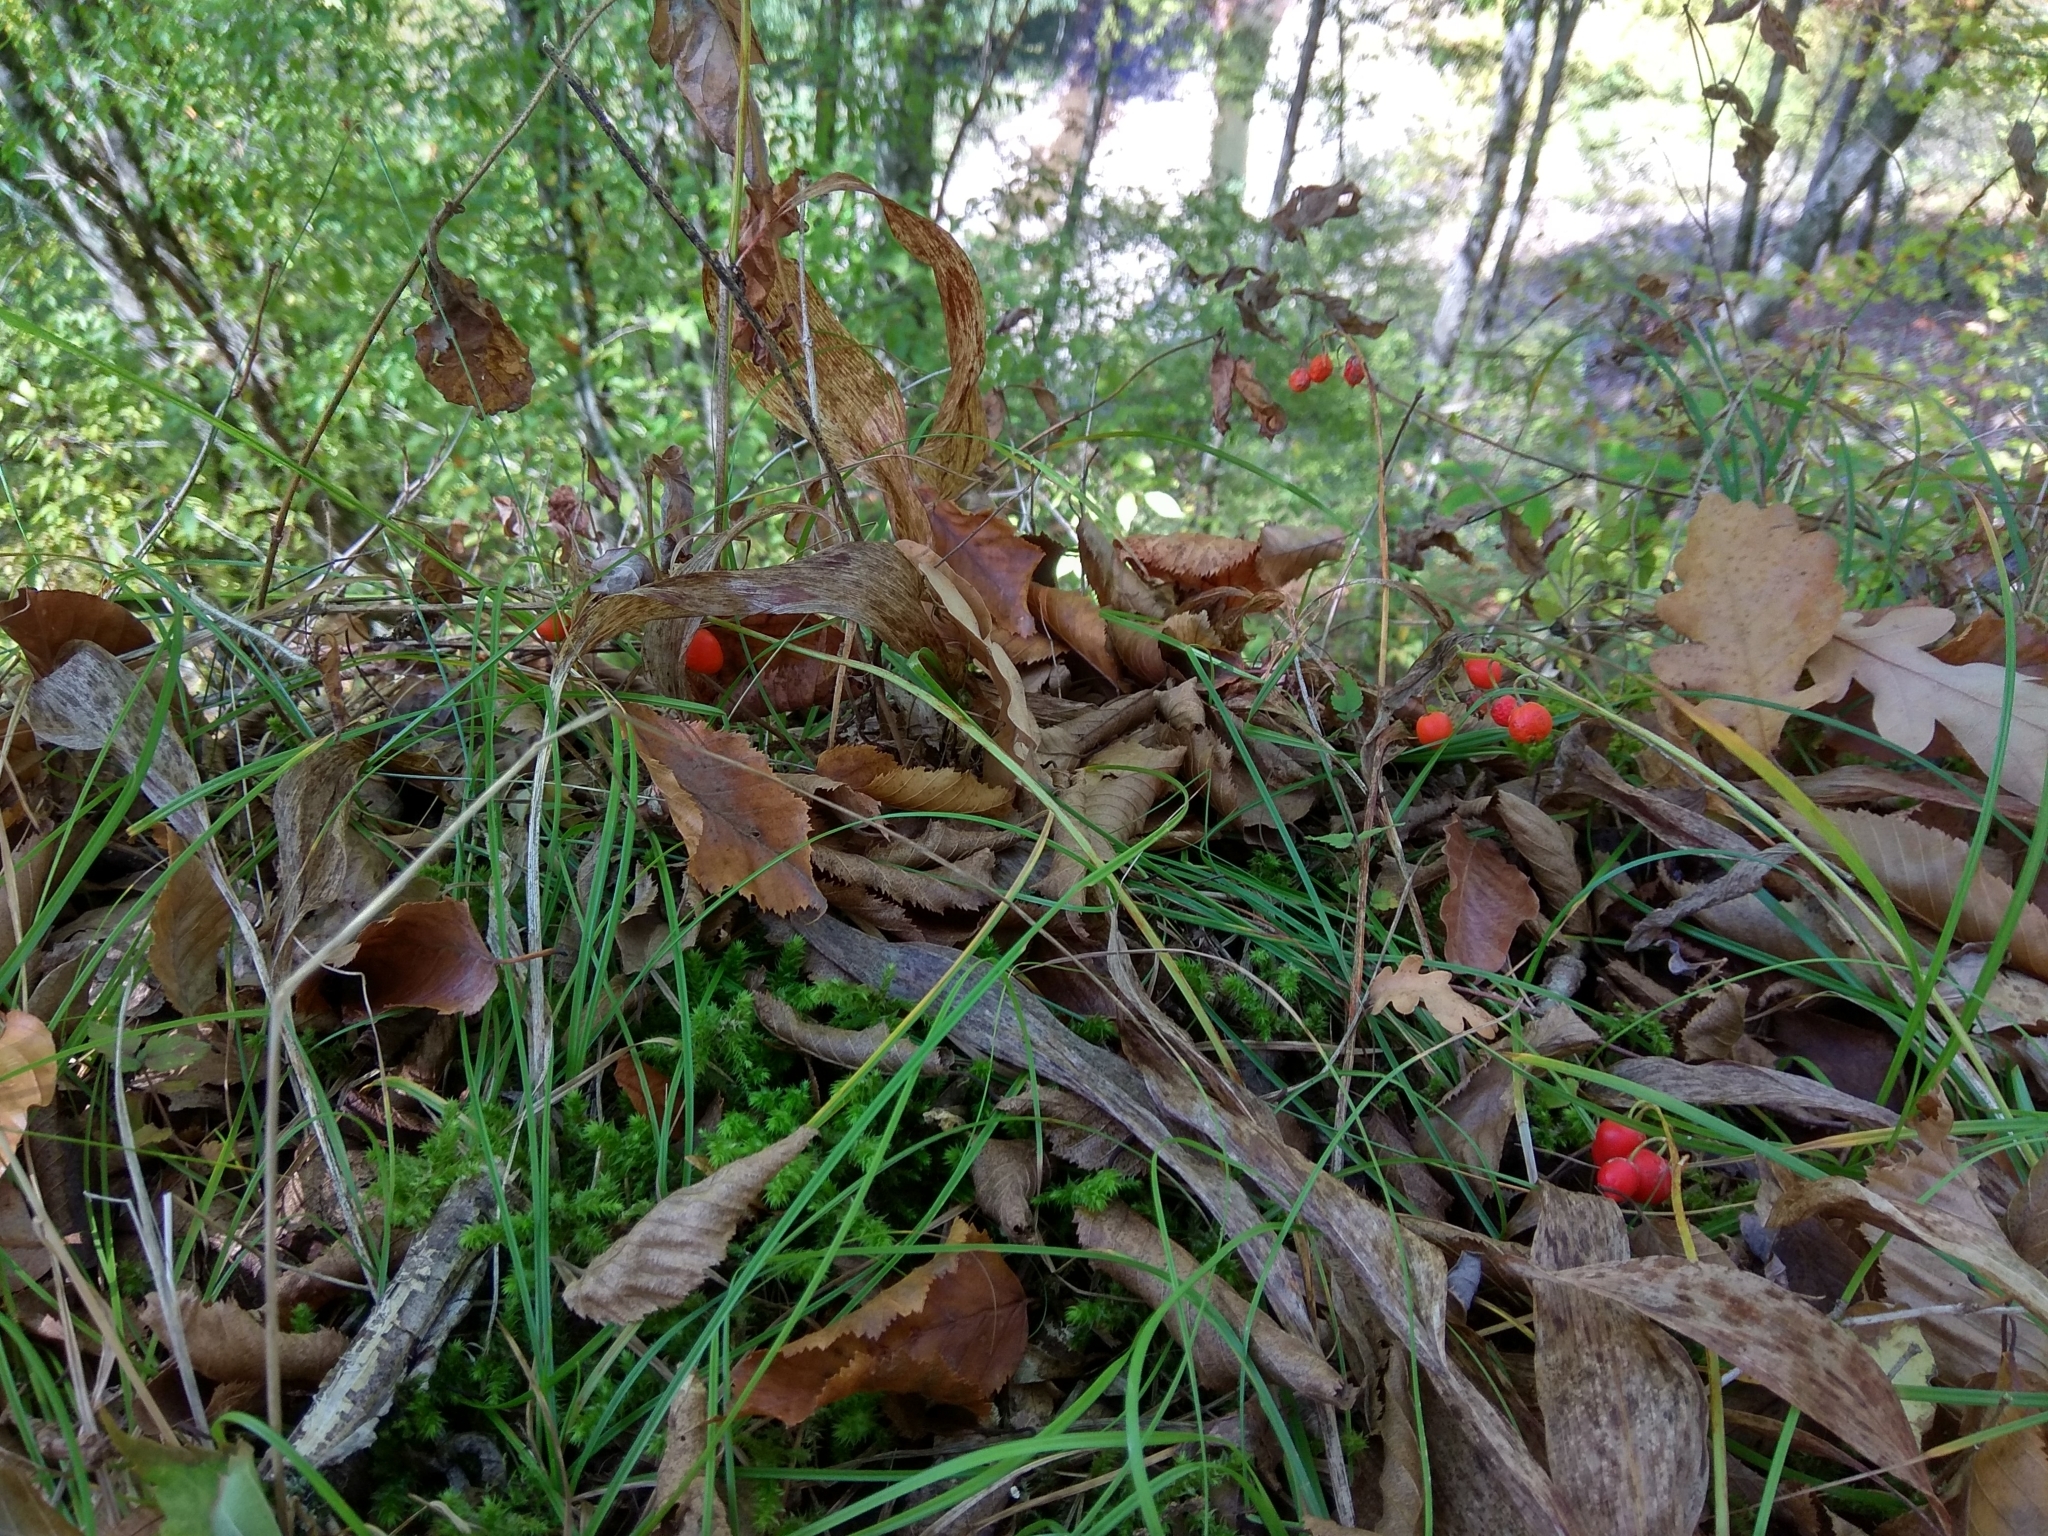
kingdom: Plantae
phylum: Tracheophyta
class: Liliopsida
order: Asparagales
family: Asparagaceae
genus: Convallaria
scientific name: Convallaria majalis
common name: Lily-of-the-valley
